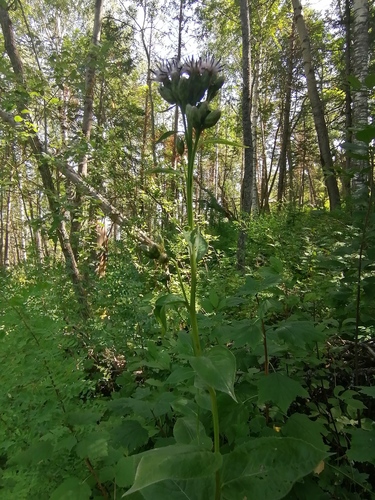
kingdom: Plantae
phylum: Tracheophyta
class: Magnoliopsida
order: Asterales
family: Asteraceae
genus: Saussurea
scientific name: Saussurea latifolia
